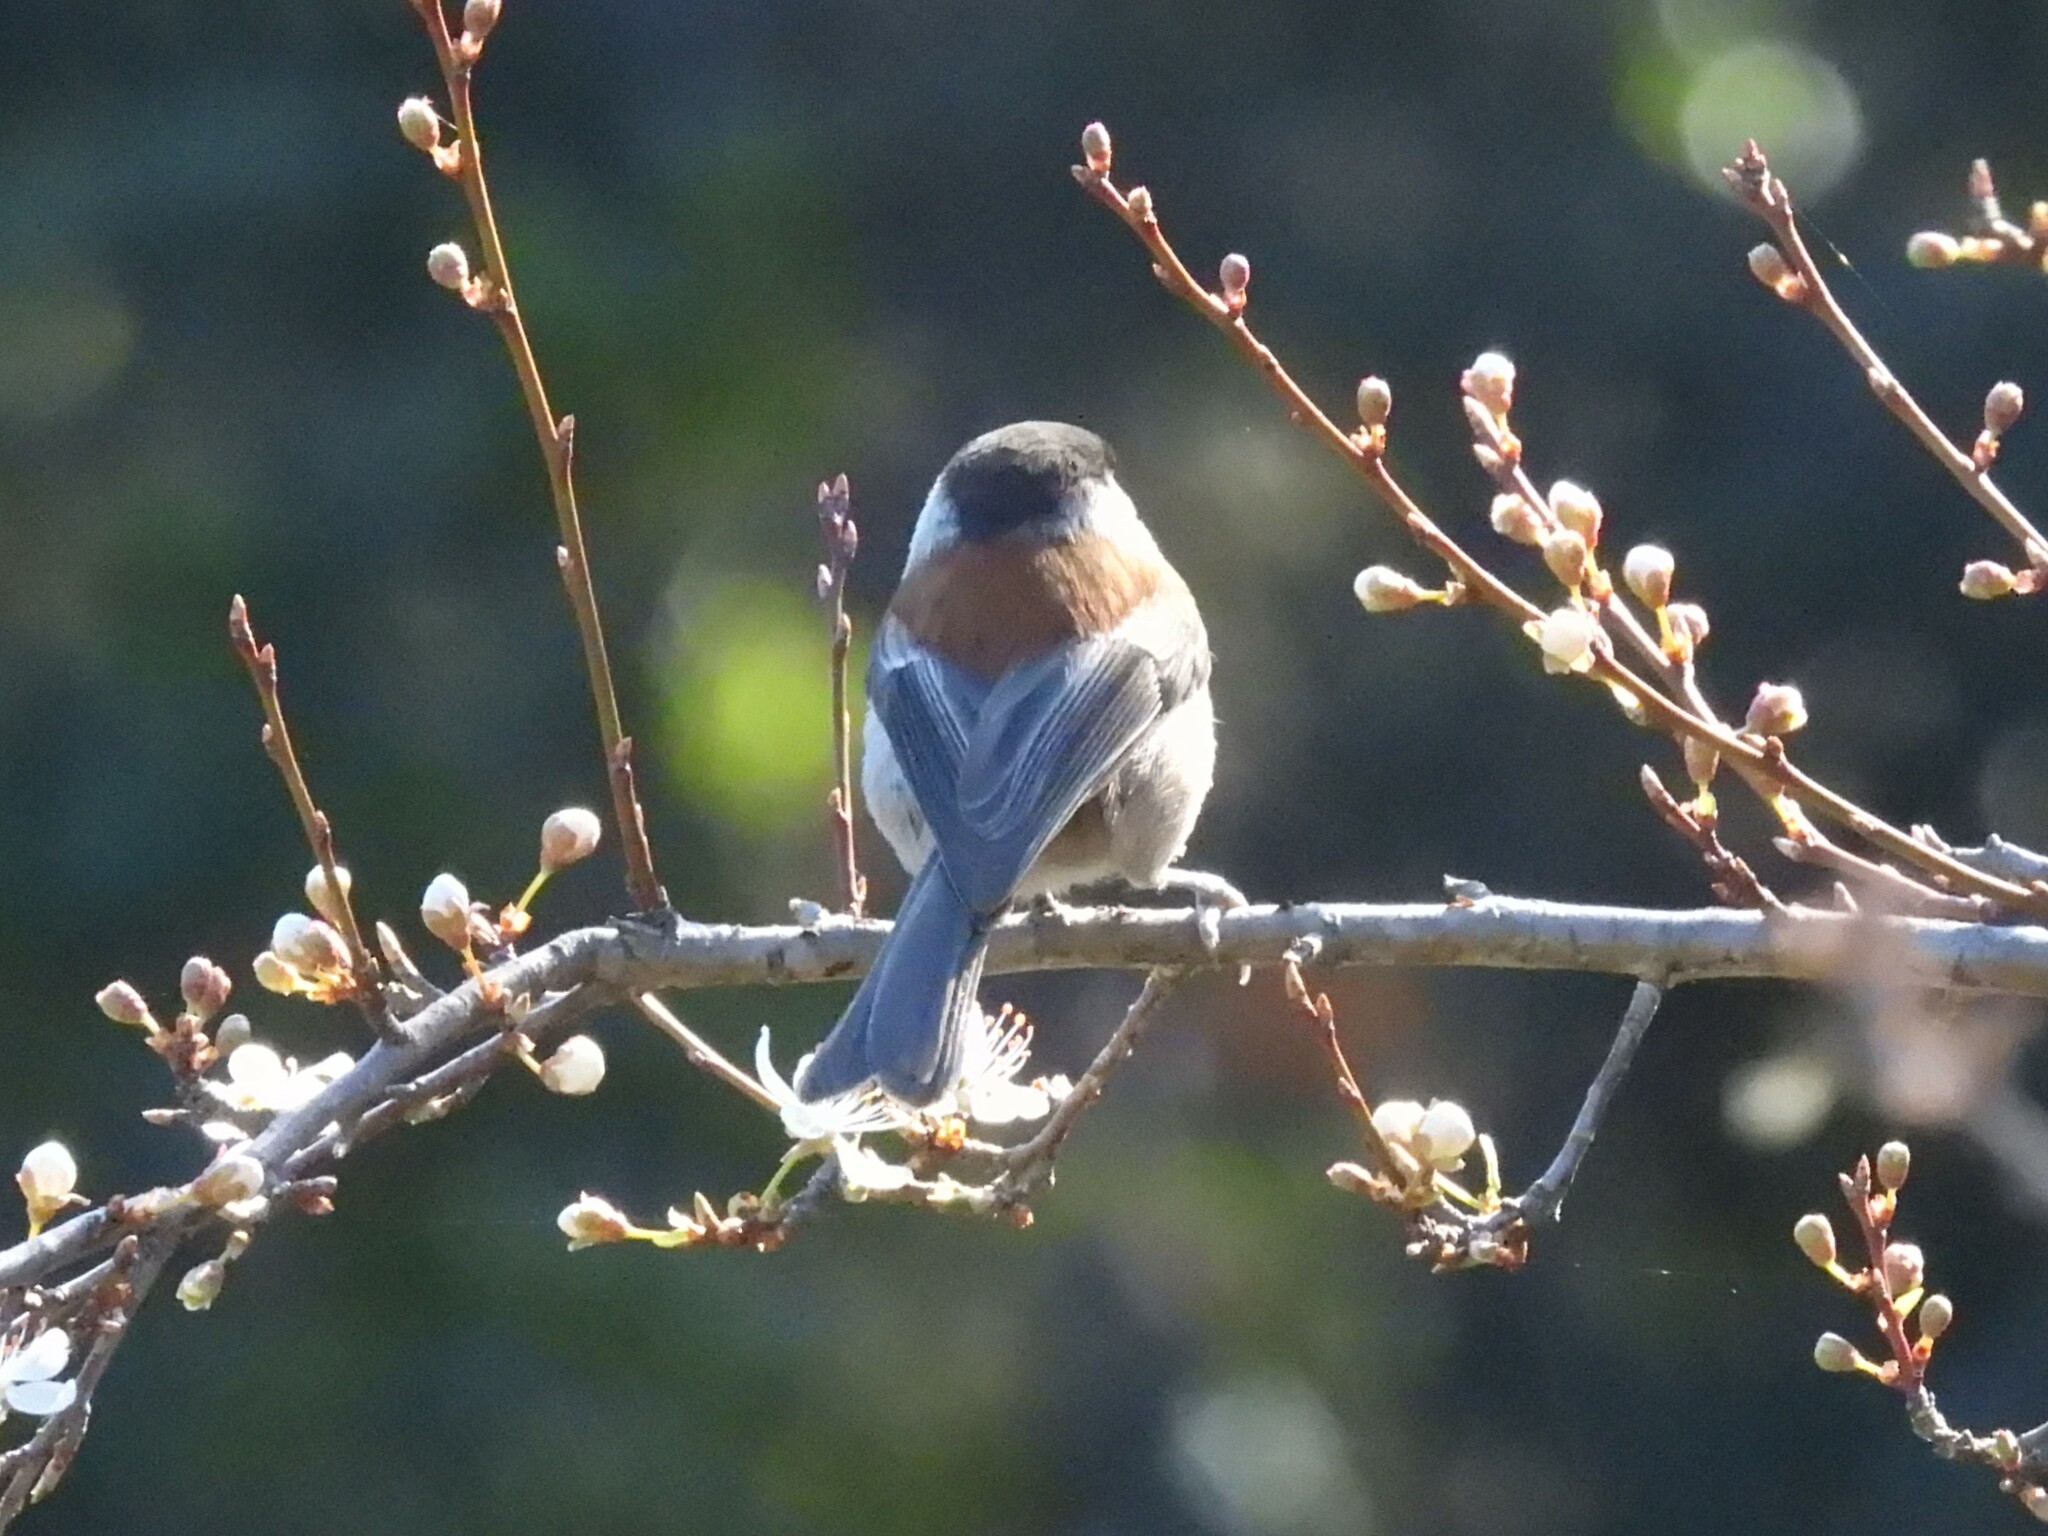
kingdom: Animalia
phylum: Chordata
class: Aves
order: Passeriformes
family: Paridae
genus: Poecile
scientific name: Poecile rufescens
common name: Chestnut-backed chickadee
